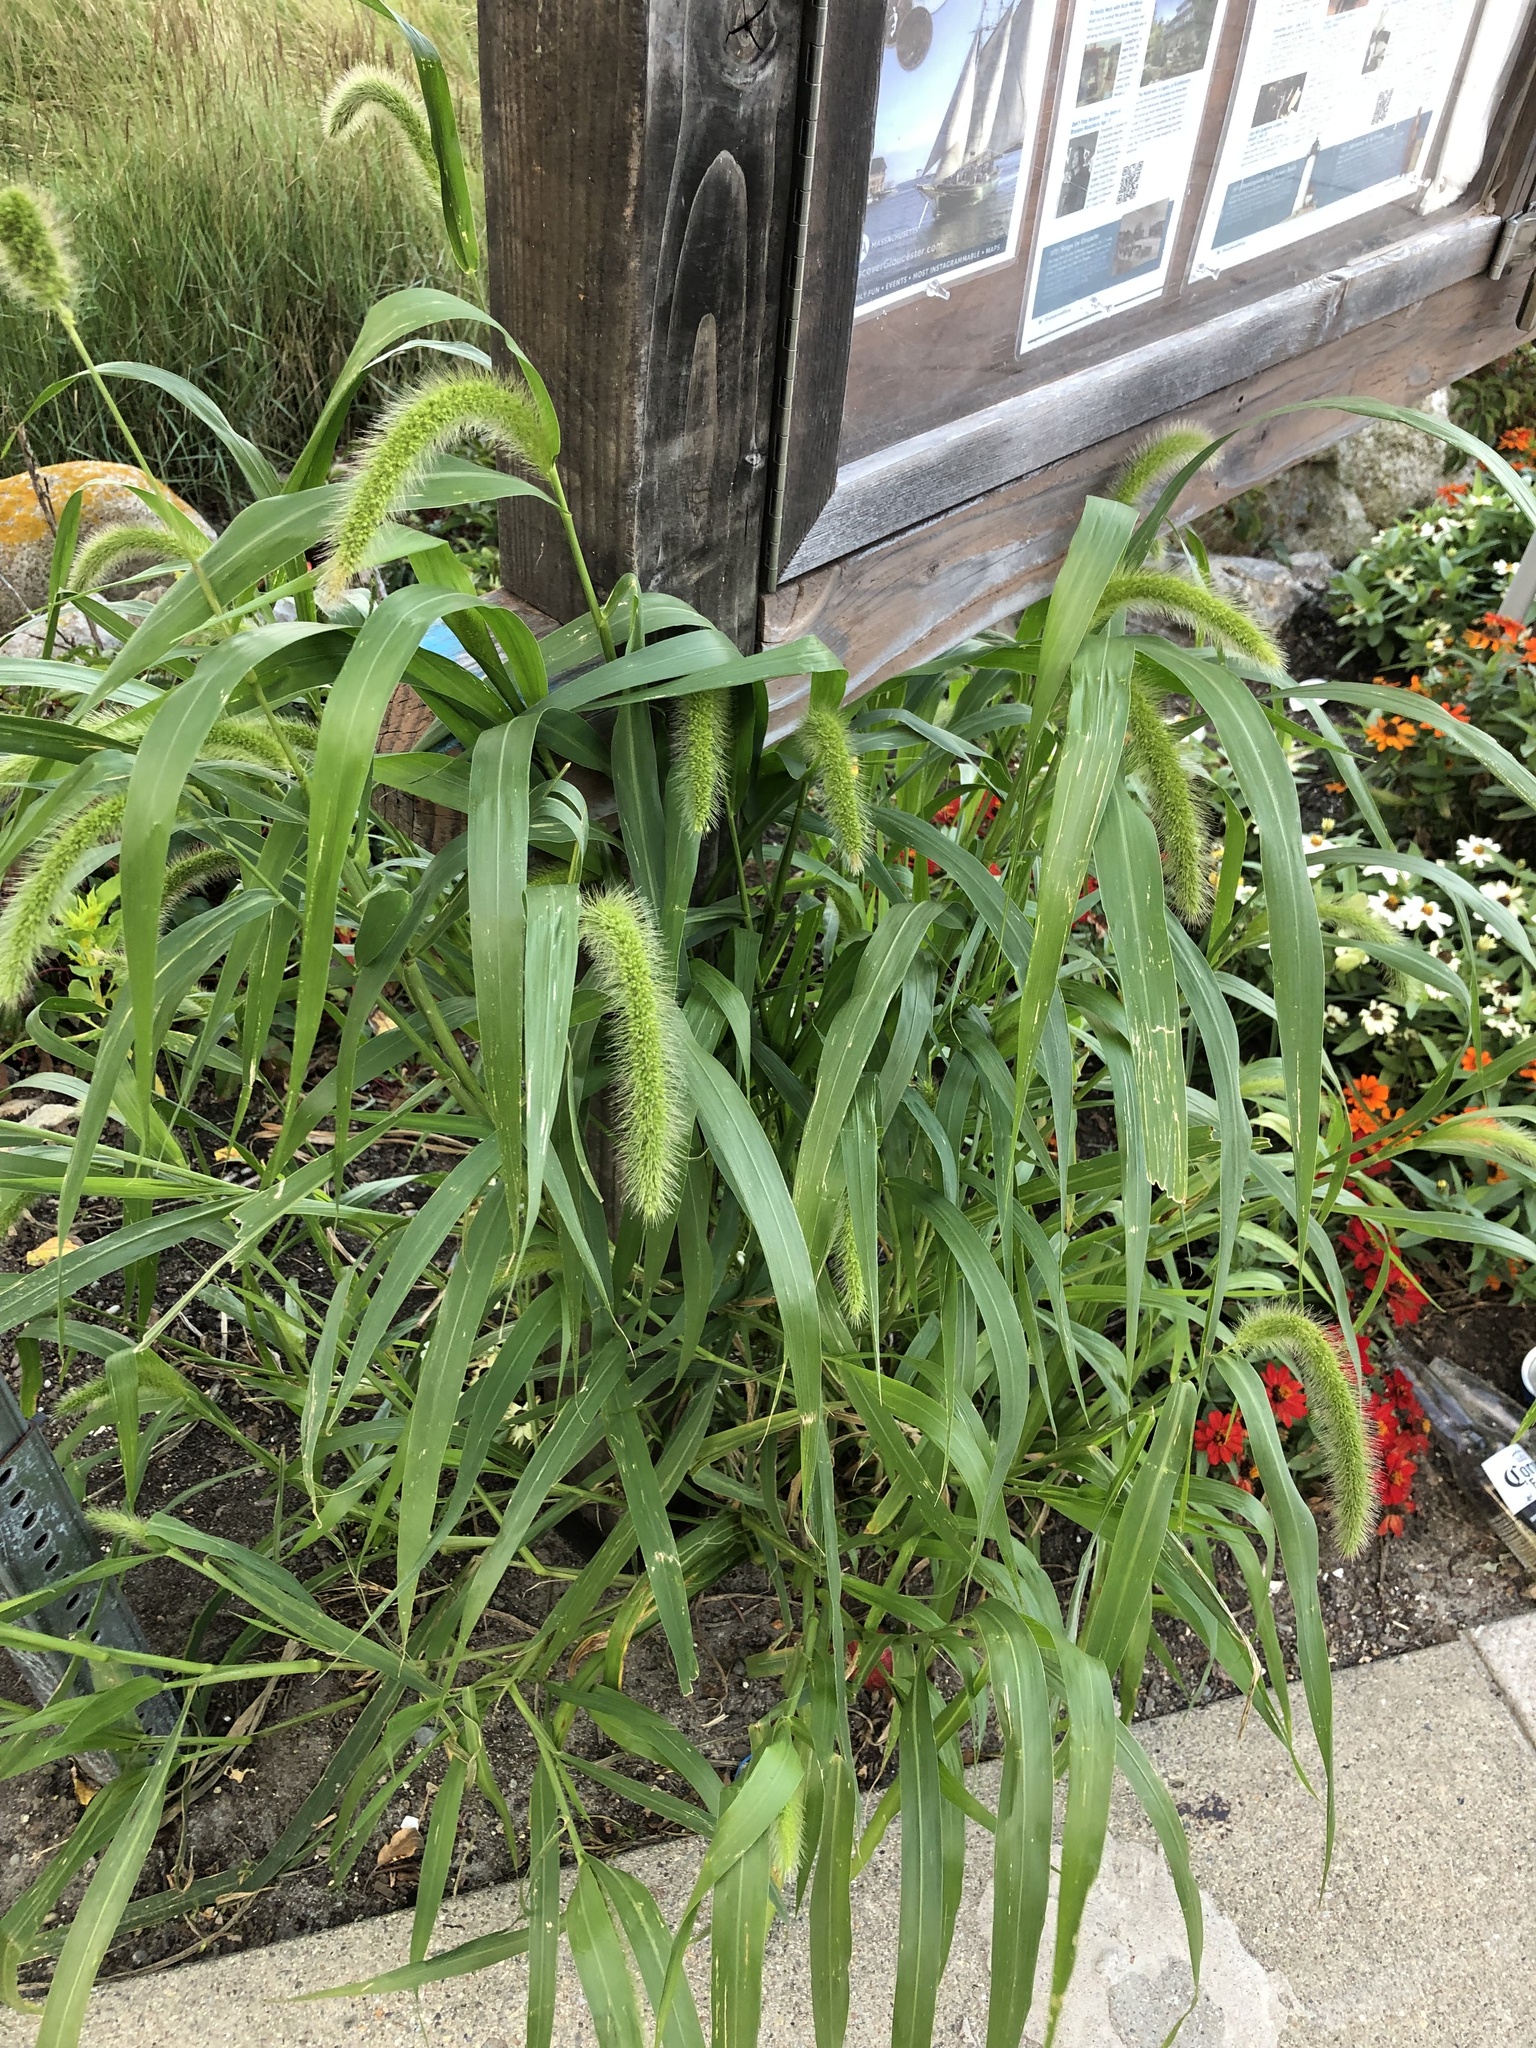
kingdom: Plantae
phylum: Tracheophyta
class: Liliopsida
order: Poales
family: Poaceae
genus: Setaria
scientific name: Setaria faberi
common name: Nodding bristle-grass
